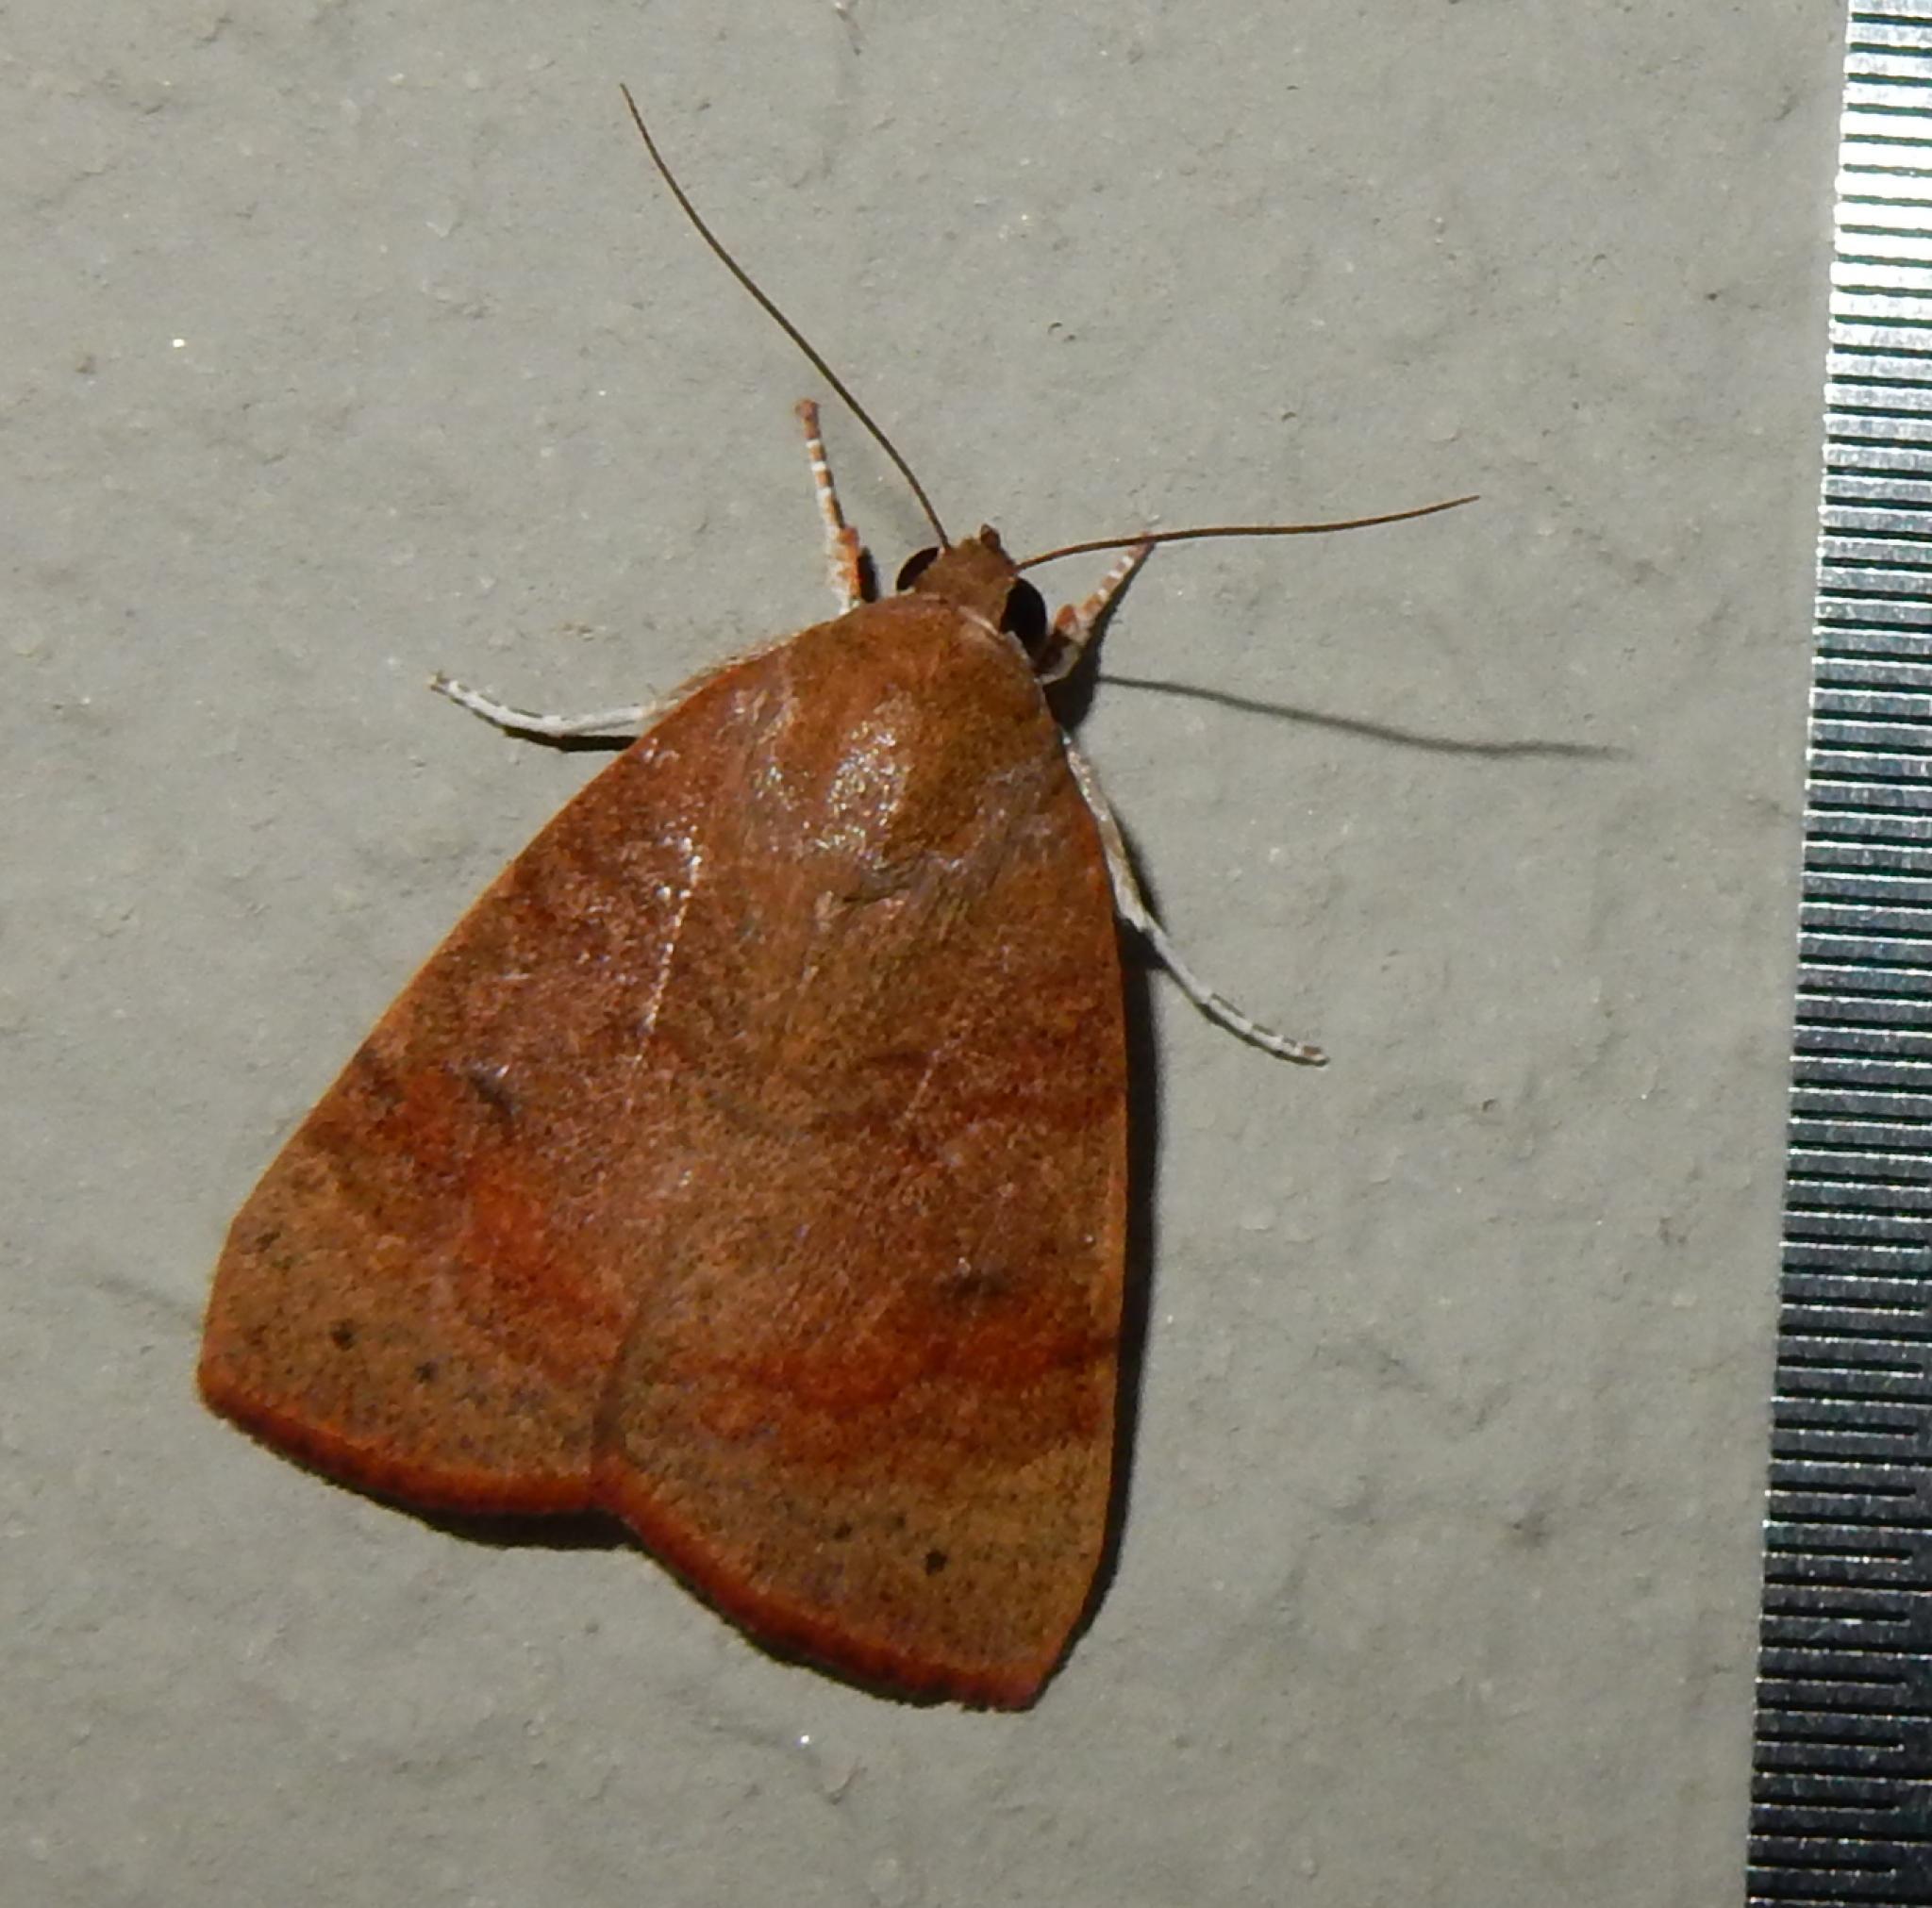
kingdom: Animalia
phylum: Arthropoda
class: Insecta
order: Lepidoptera
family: Nolidae
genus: Maurilia
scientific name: Maurilia arcuata
